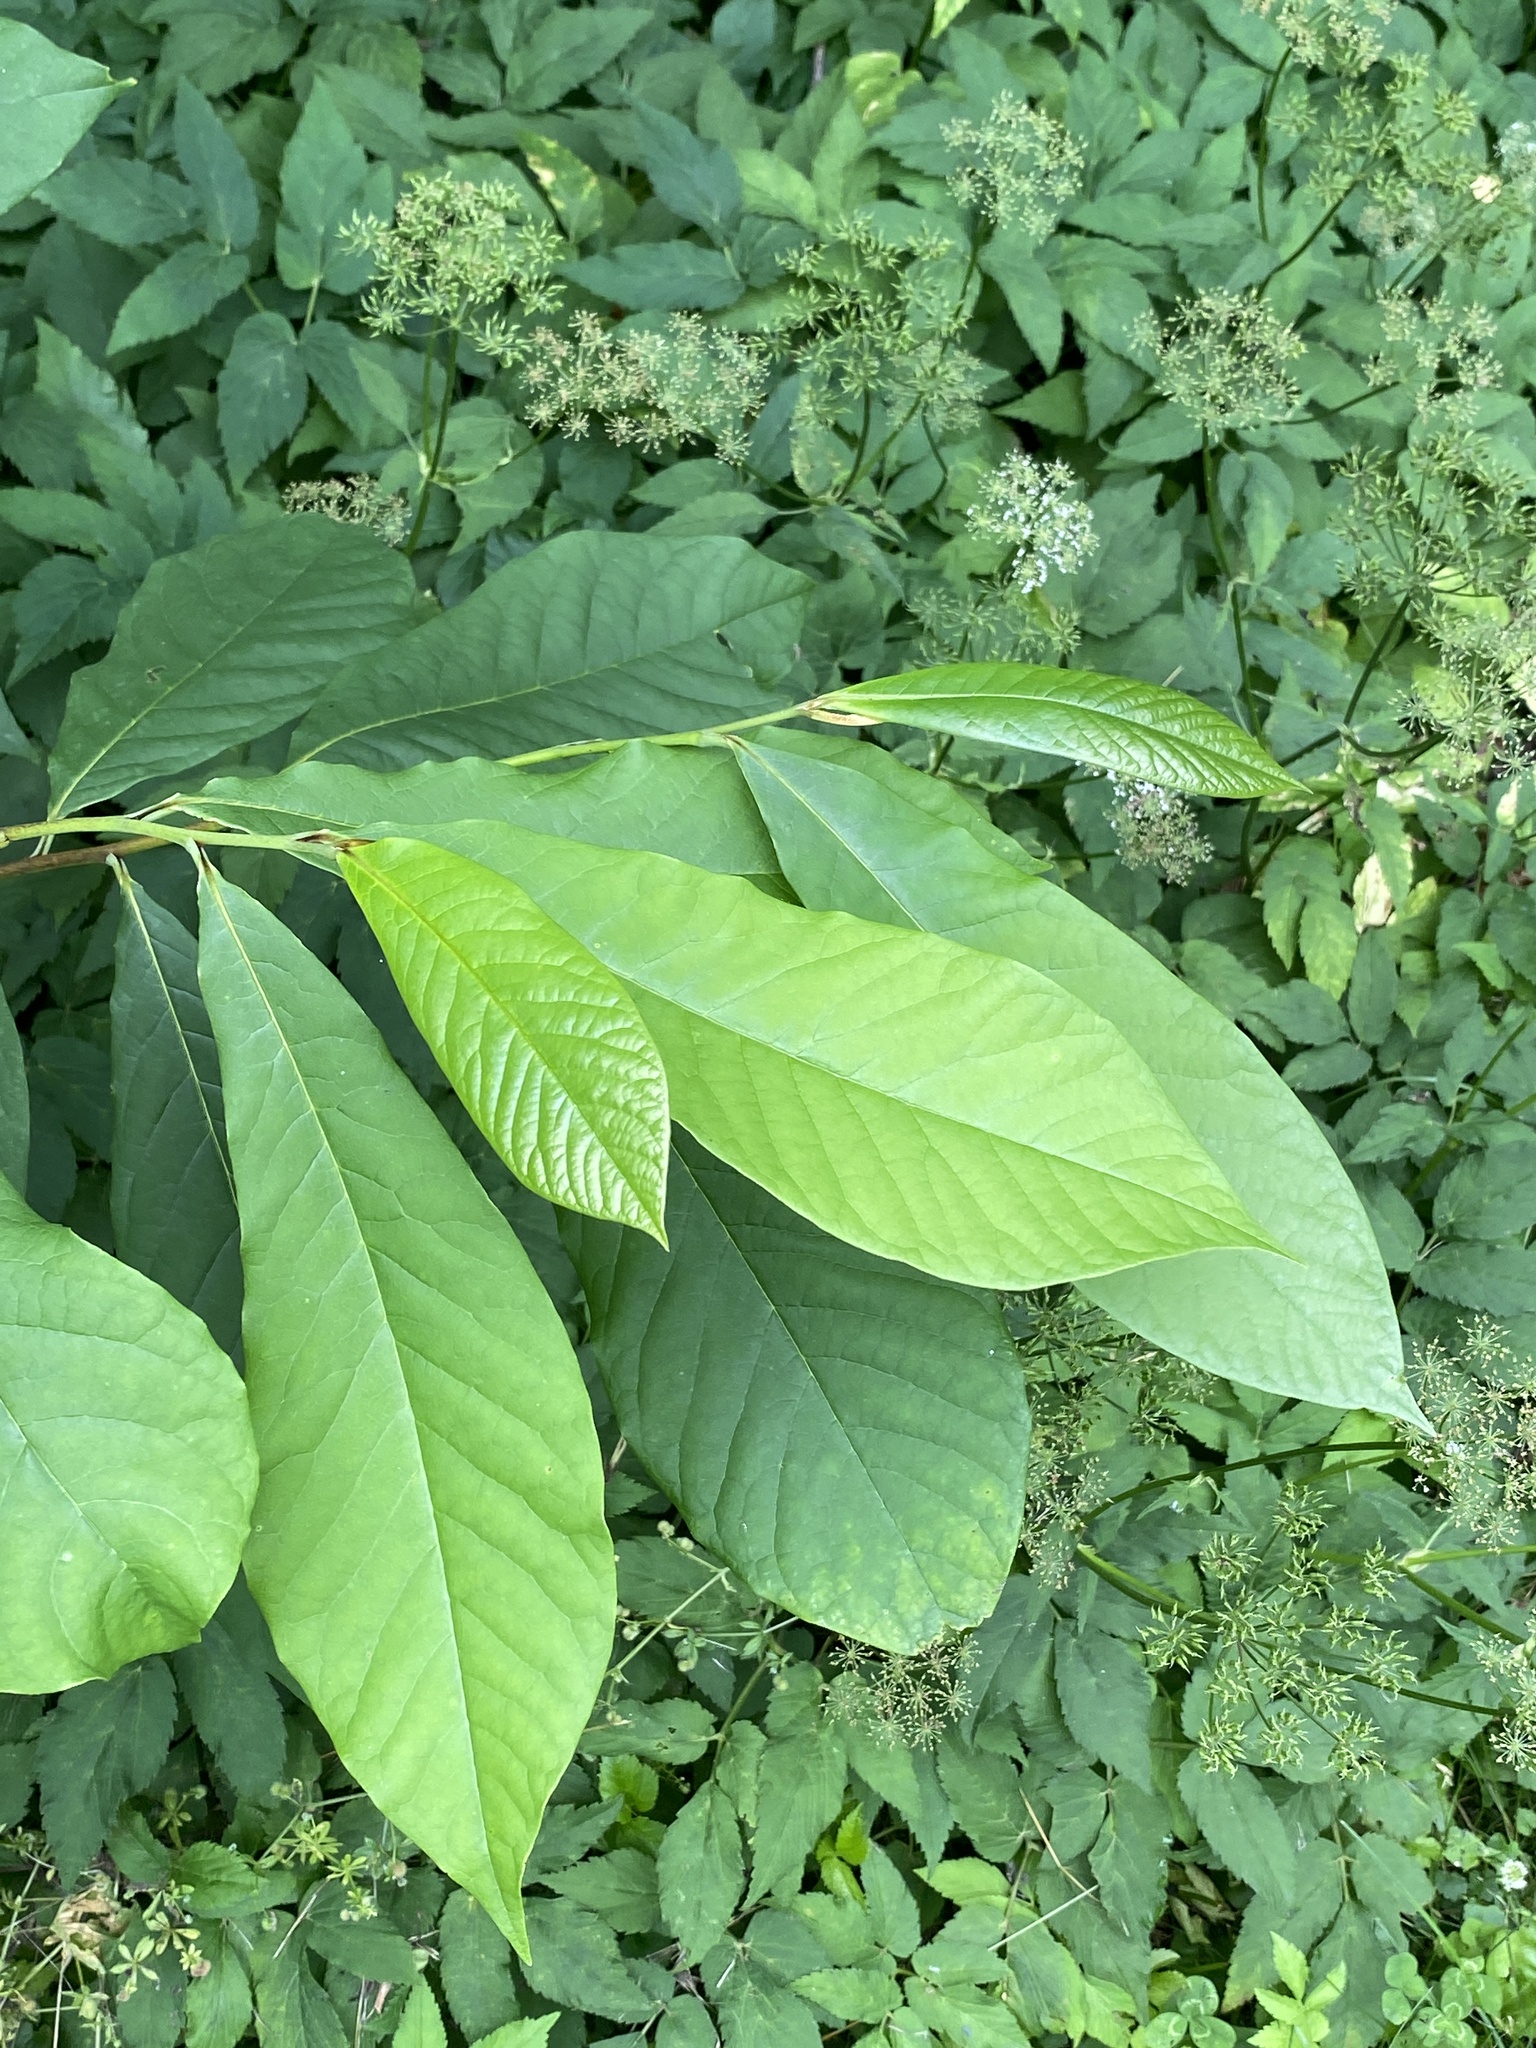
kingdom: Plantae
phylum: Tracheophyta
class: Magnoliopsida
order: Magnoliales
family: Annonaceae
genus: Asimina
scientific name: Asimina triloba
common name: Dog-banana
